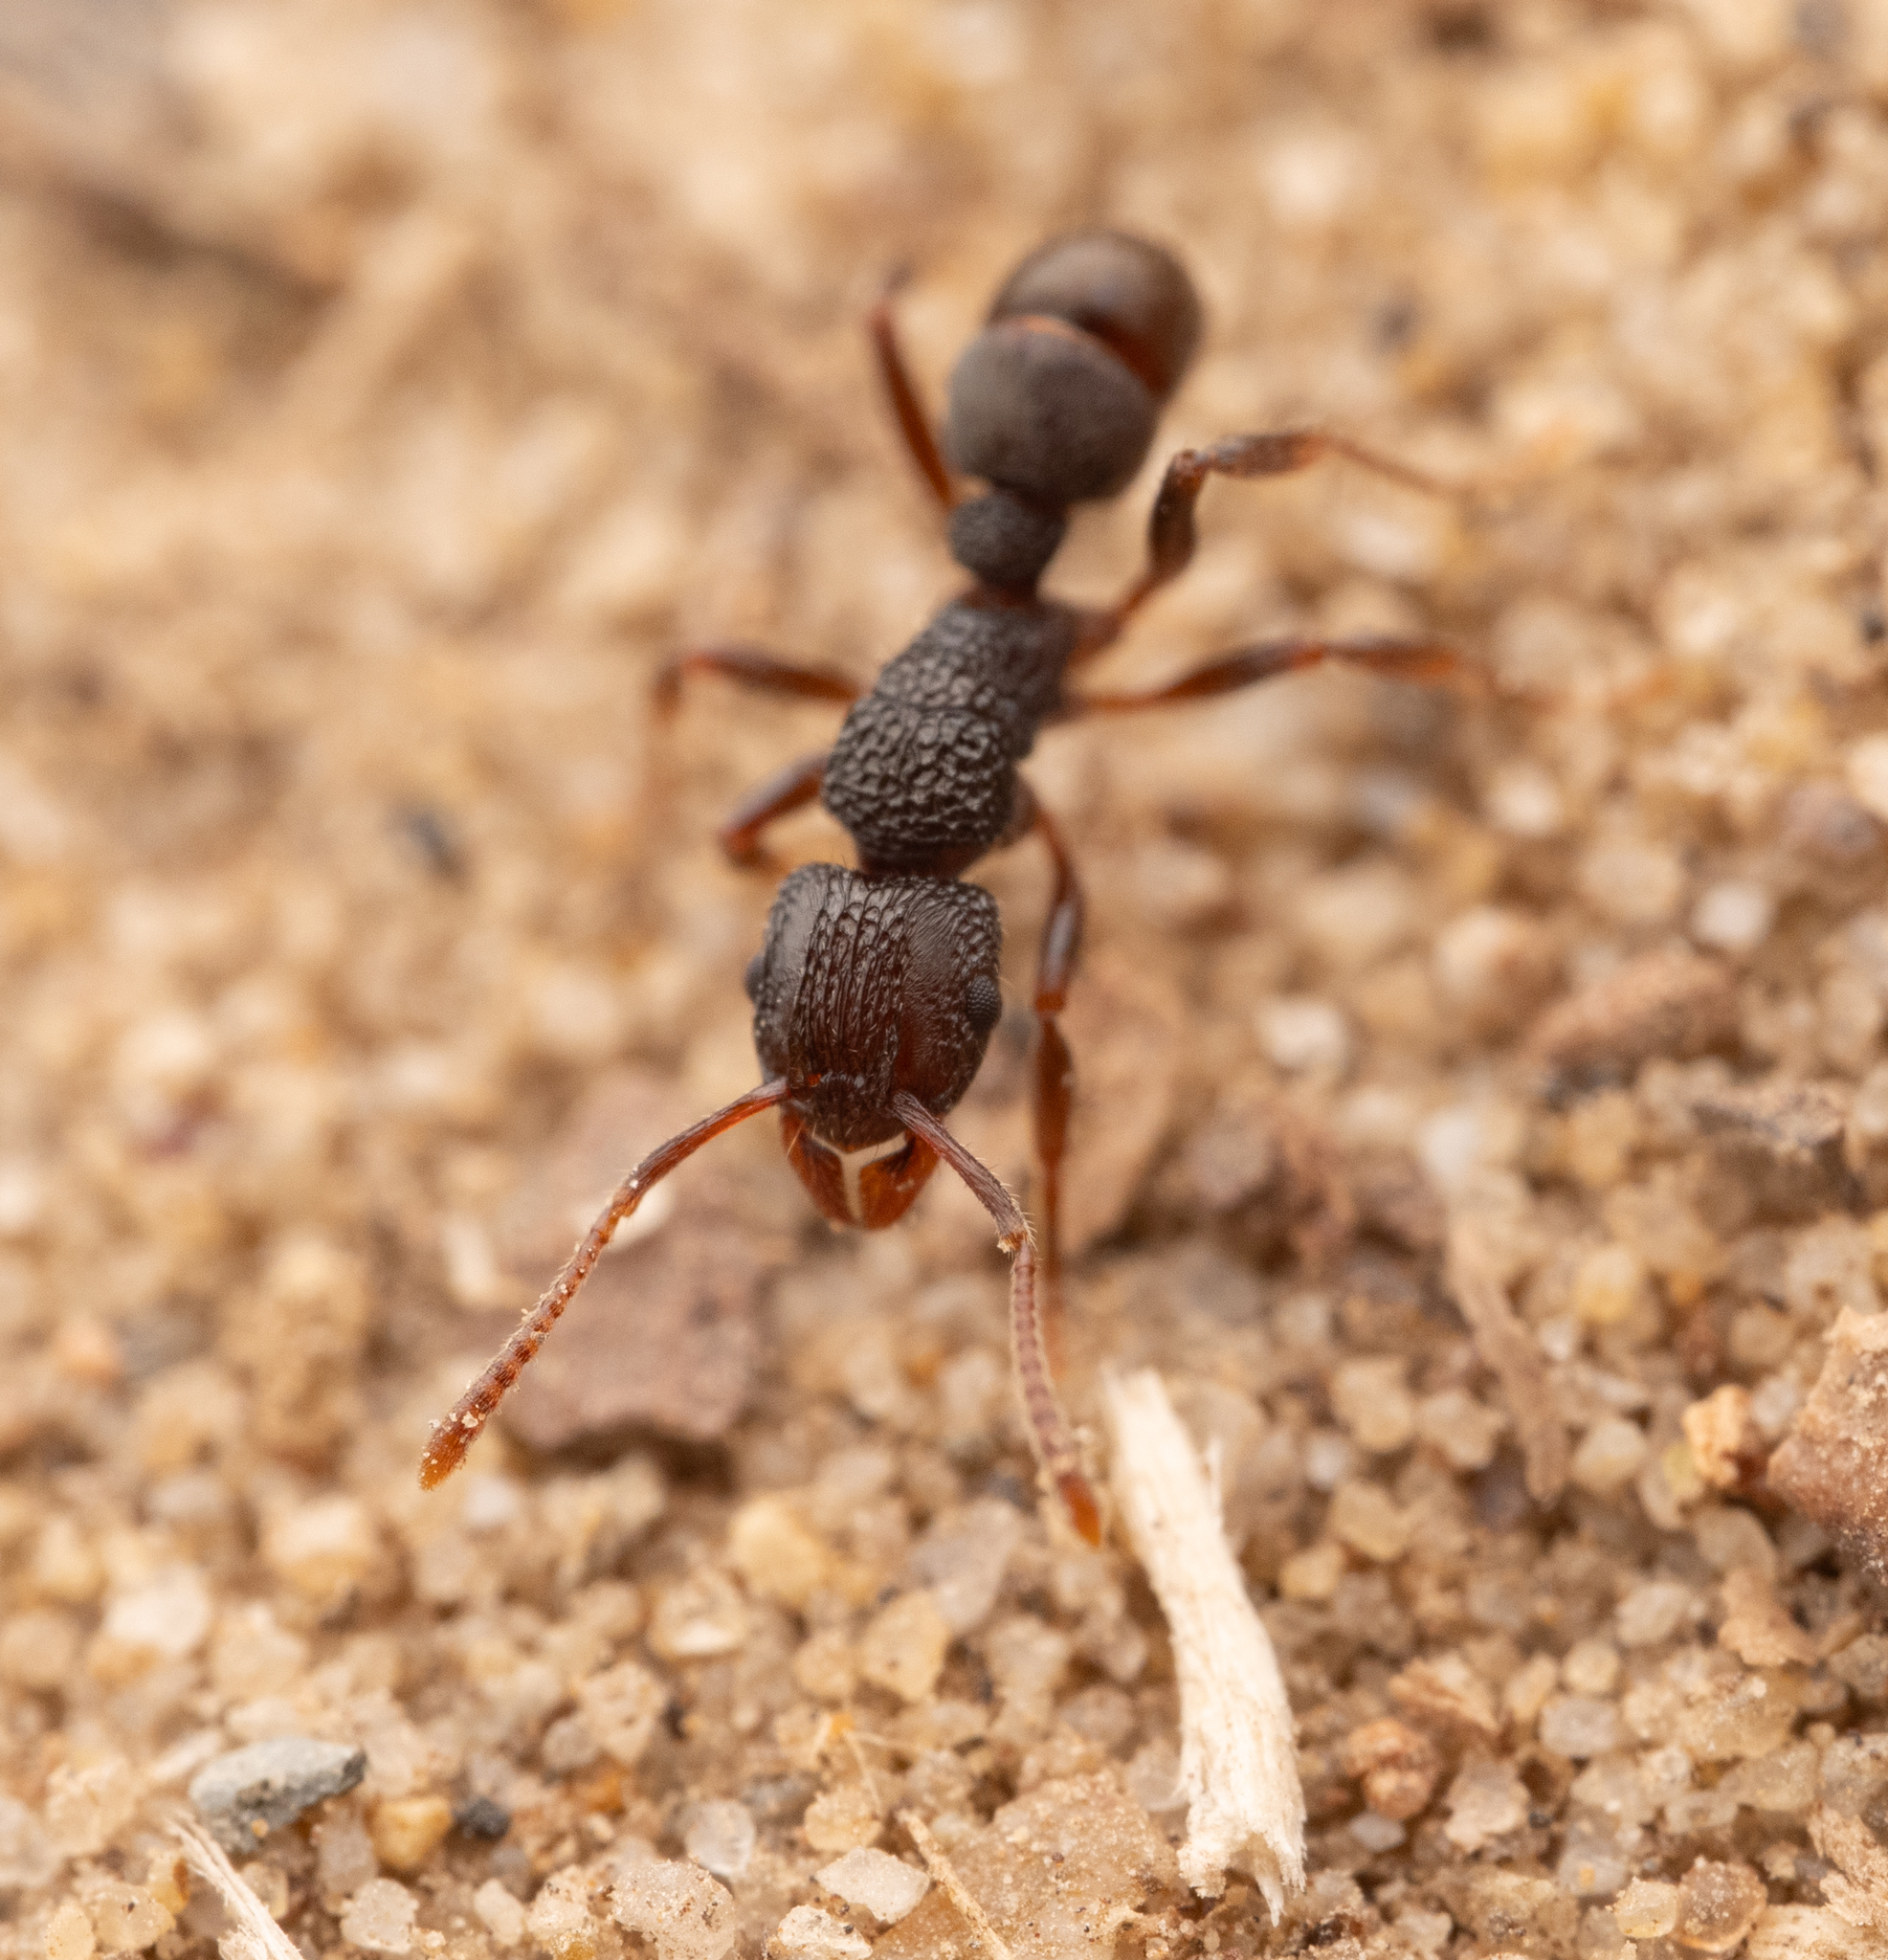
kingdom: Animalia
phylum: Arthropoda
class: Insecta
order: Hymenoptera
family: Formicidae
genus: Rhytidoponera
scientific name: Rhytidoponera victoriae
